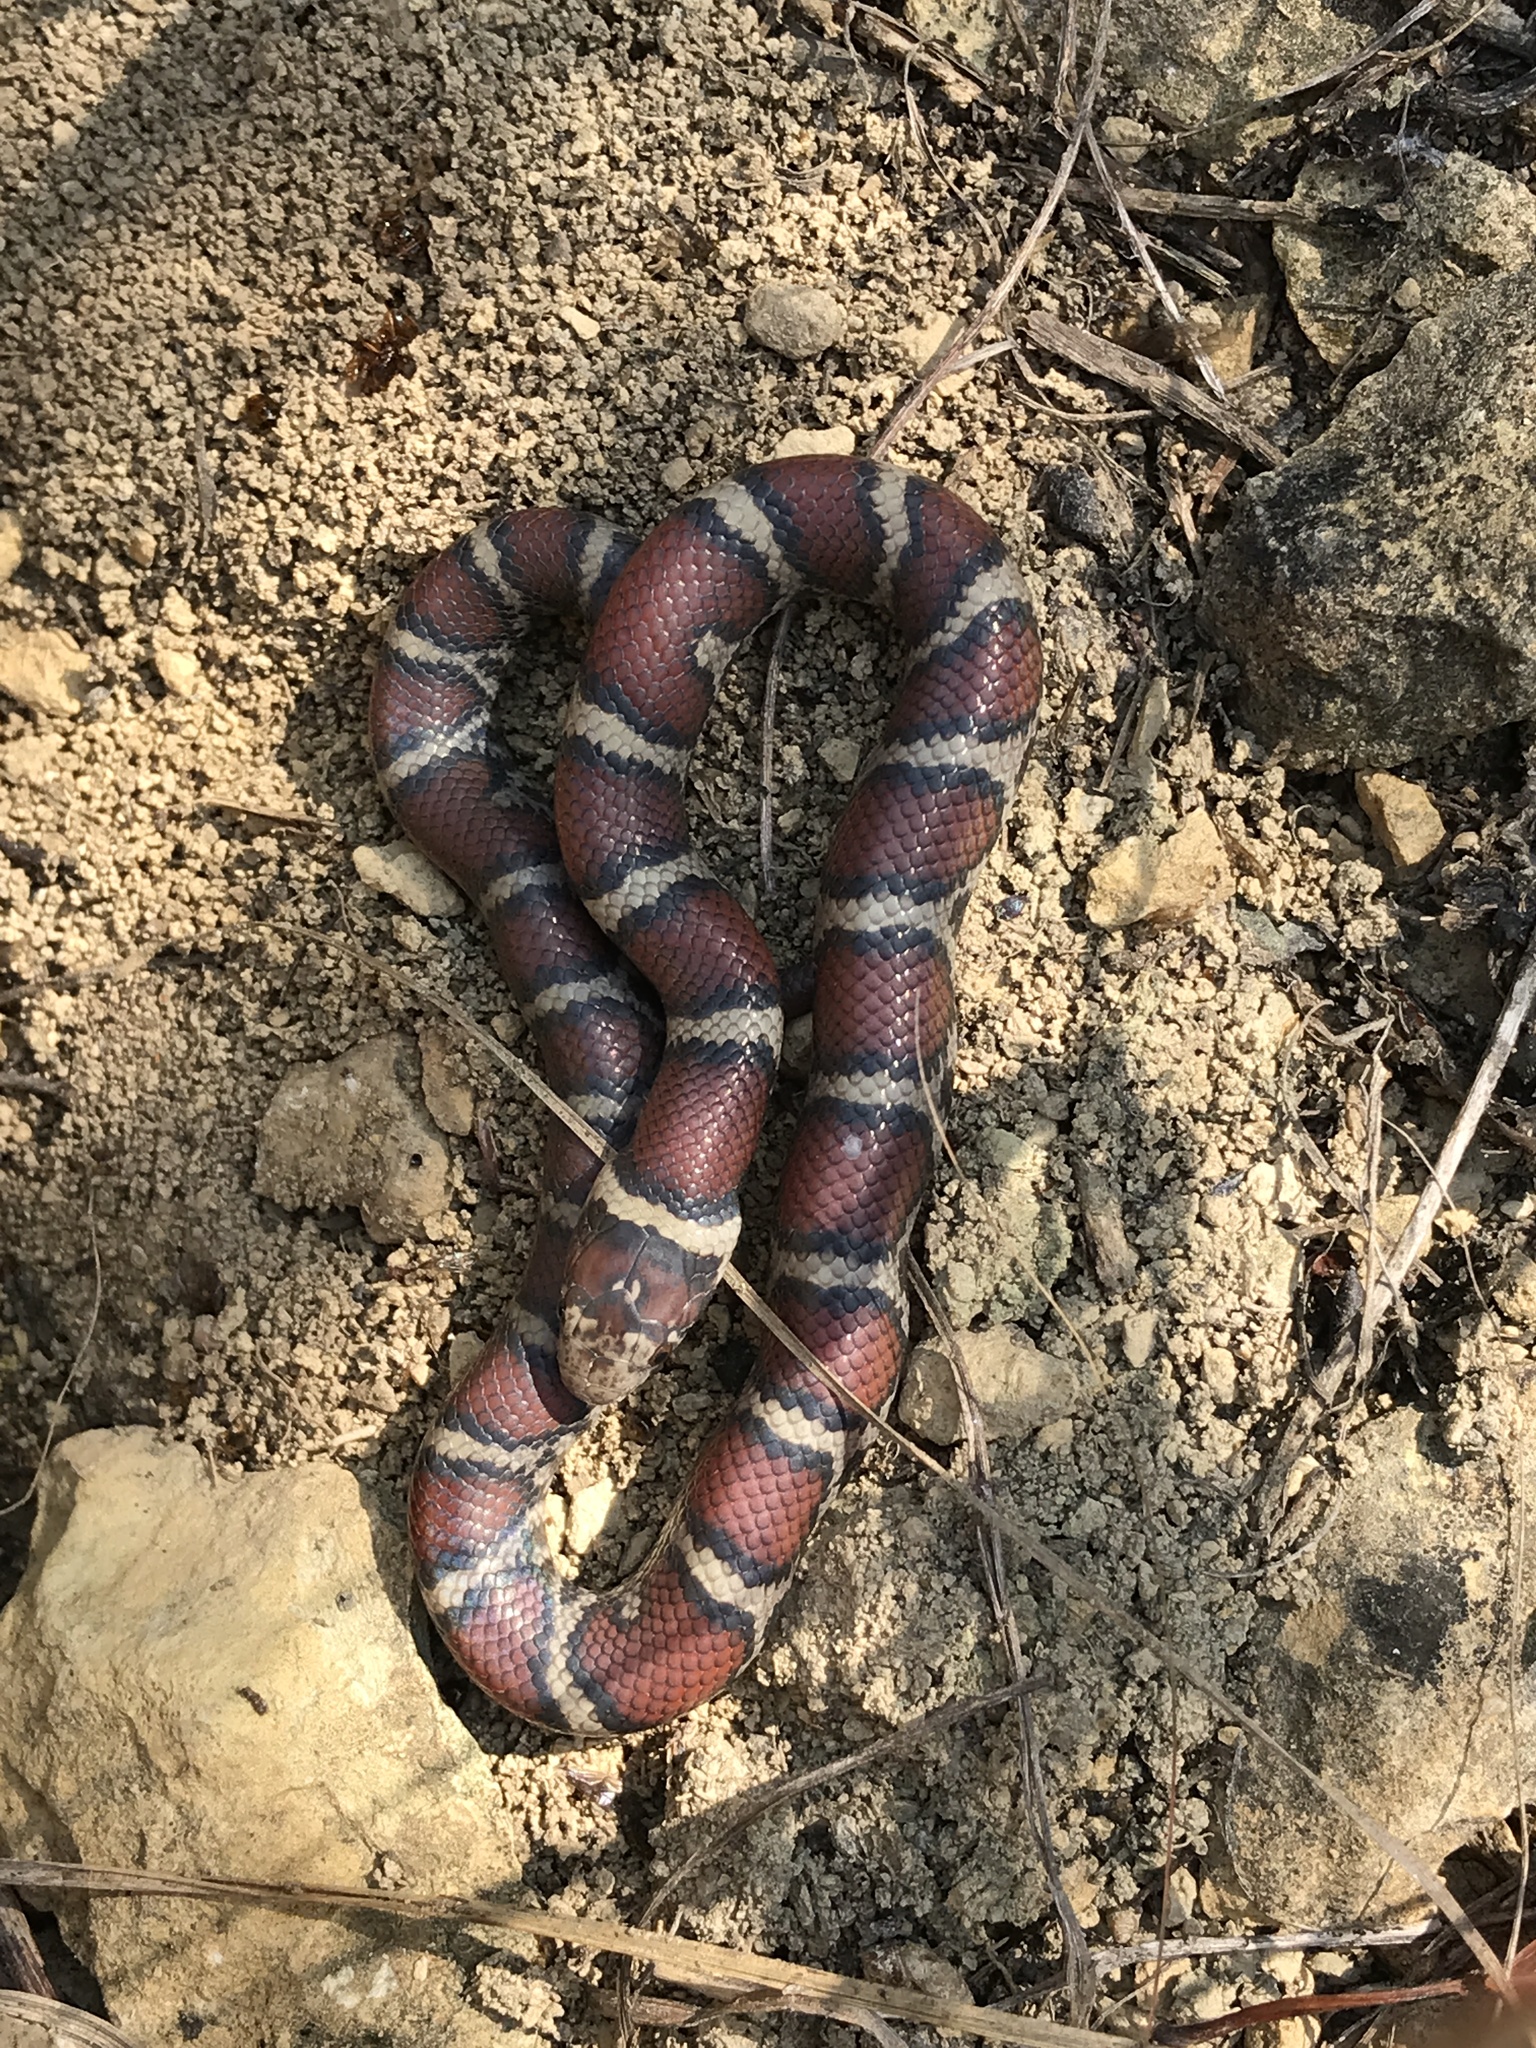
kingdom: Animalia
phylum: Chordata
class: Squamata
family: Colubridae
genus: Lampropeltis
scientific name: Lampropeltis triangulum
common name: Eastern milksnake
